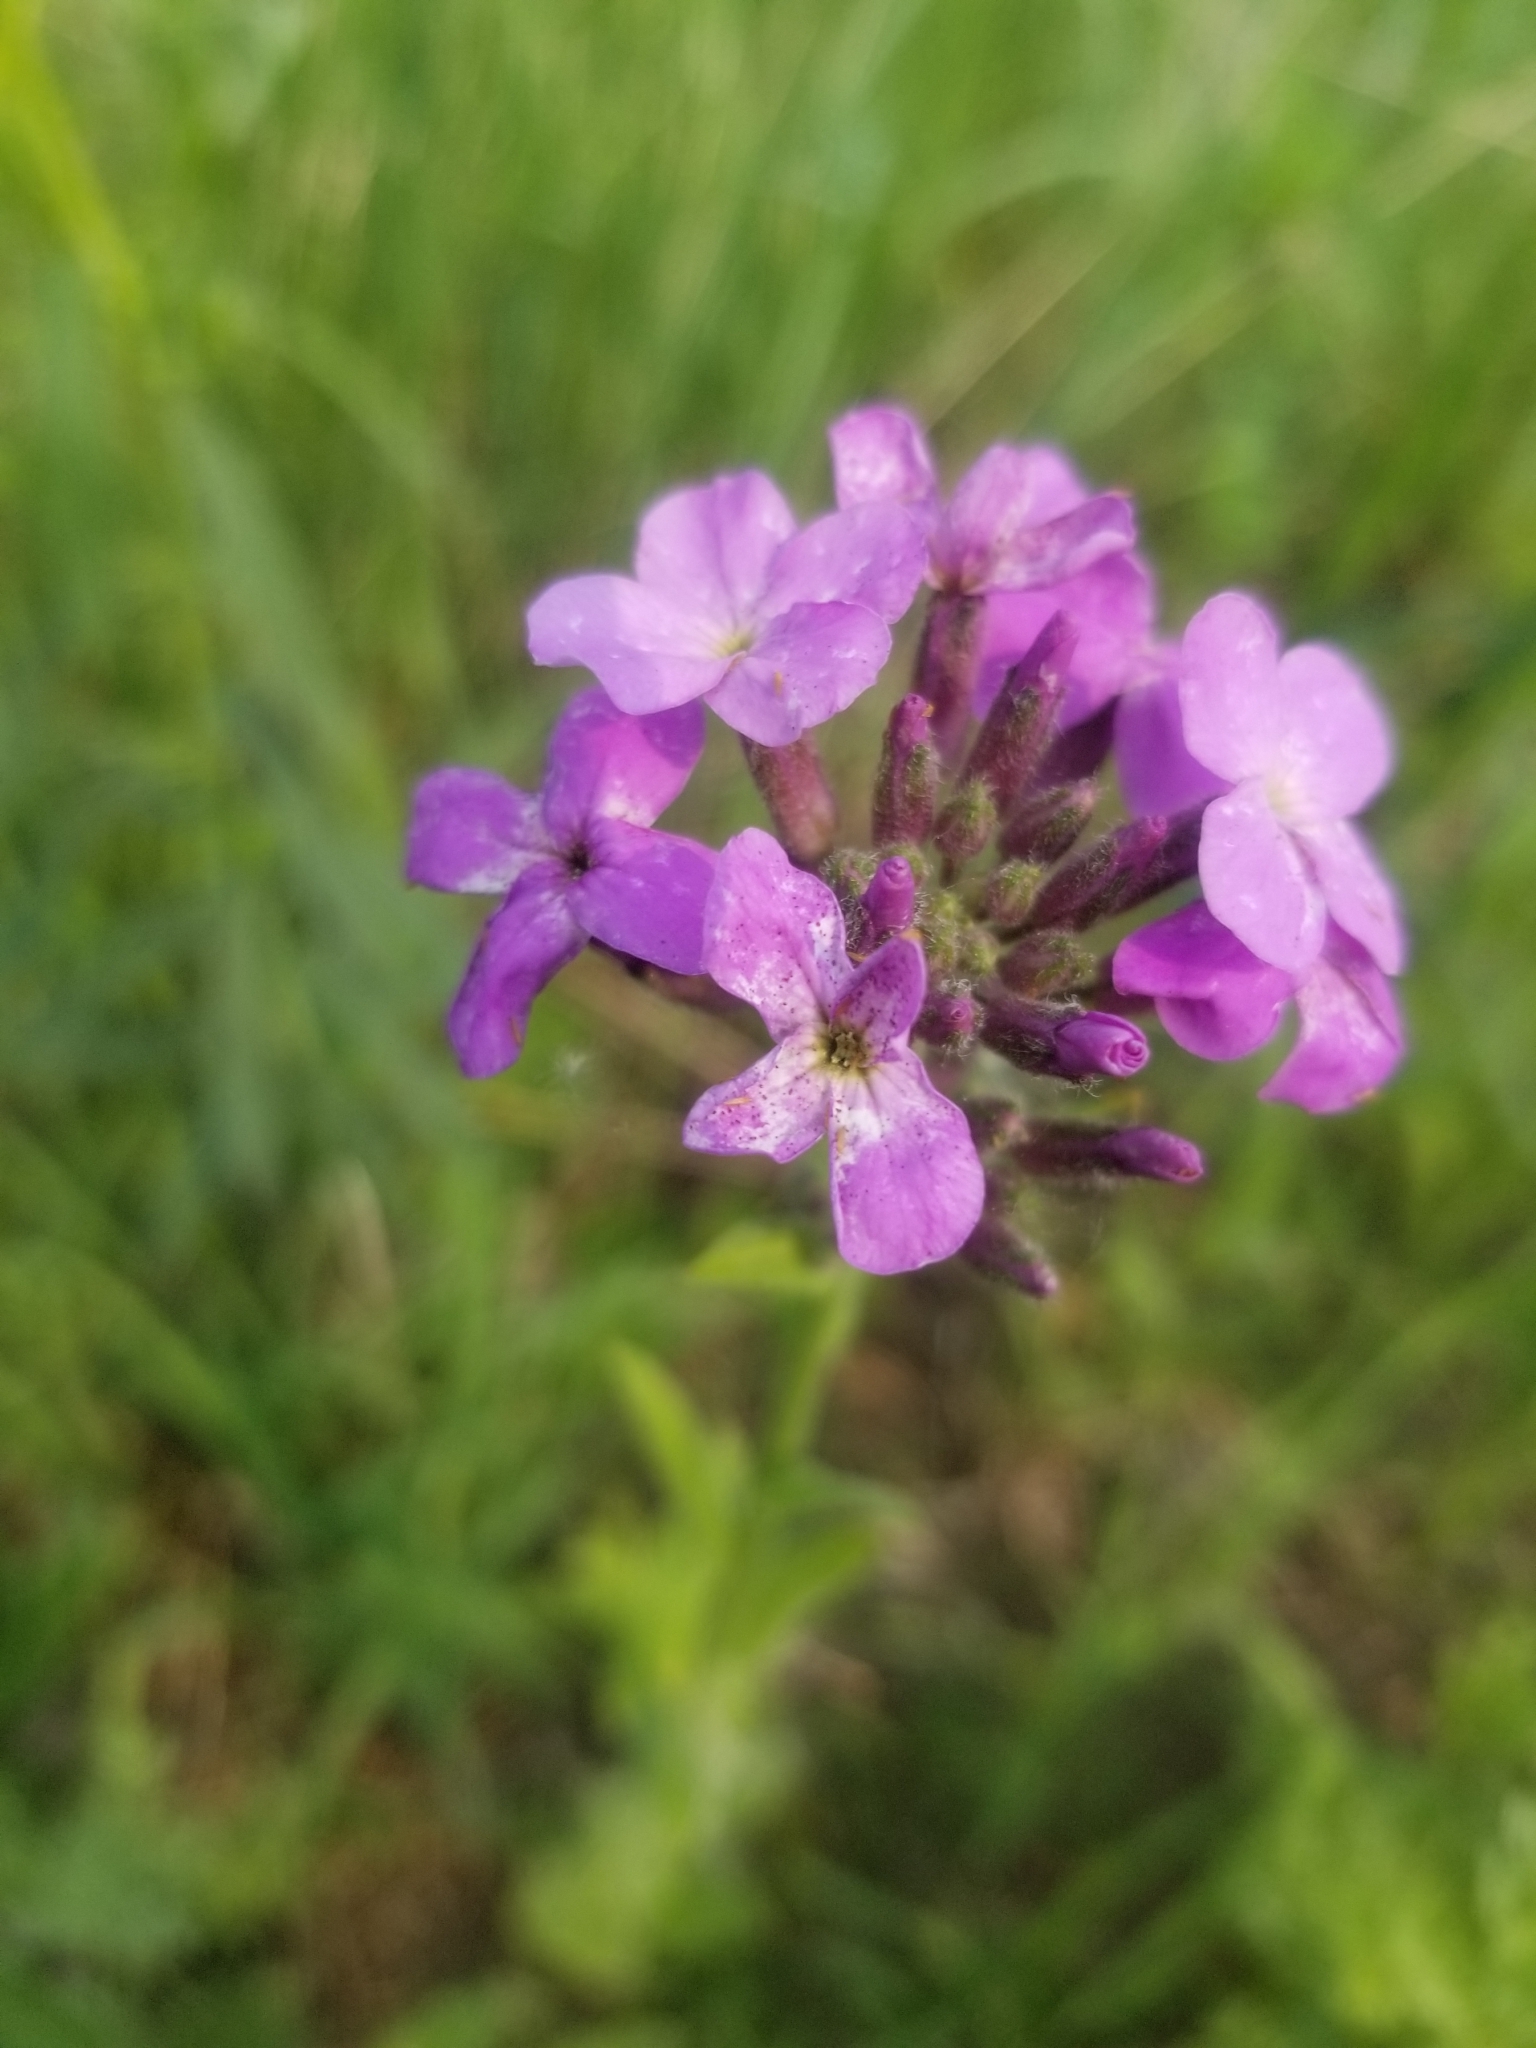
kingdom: Plantae
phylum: Tracheophyta
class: Magnoliopsida
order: Brassicales
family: Brassicaceae
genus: Hesperis
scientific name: Hesperis matronalis
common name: Dame's-violet
